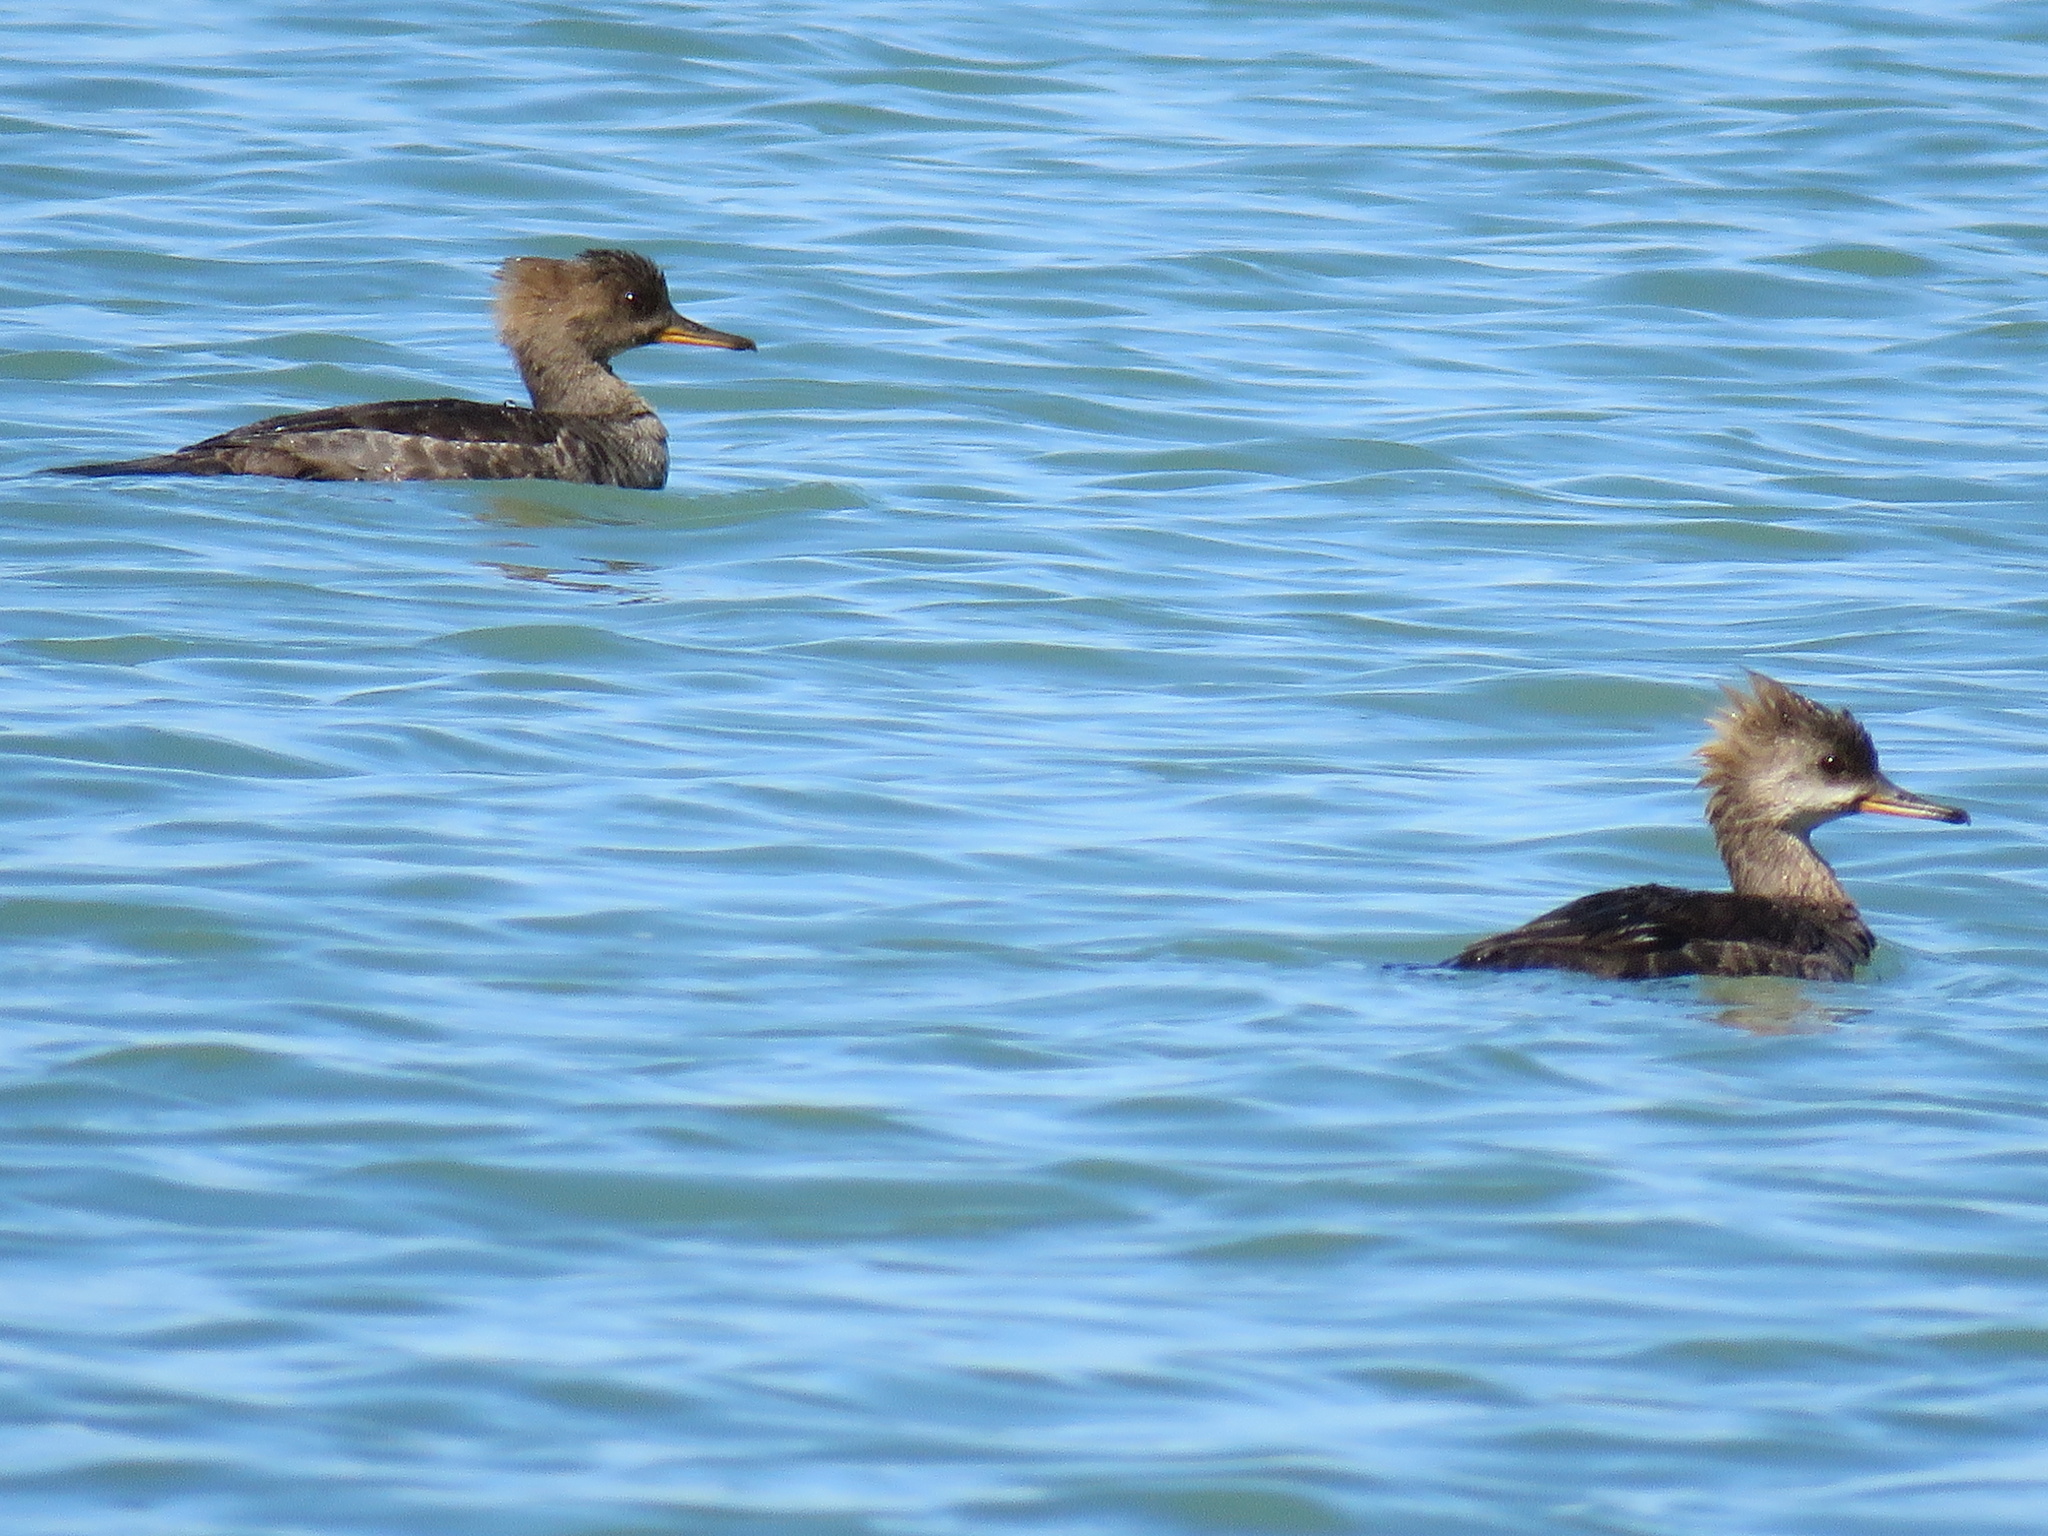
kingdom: Animalia
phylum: Chordata
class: Aves
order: Anseriformes
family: Anatidae
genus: Lophodytes
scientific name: Lophodytes cucullatus
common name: Hooded merganser
